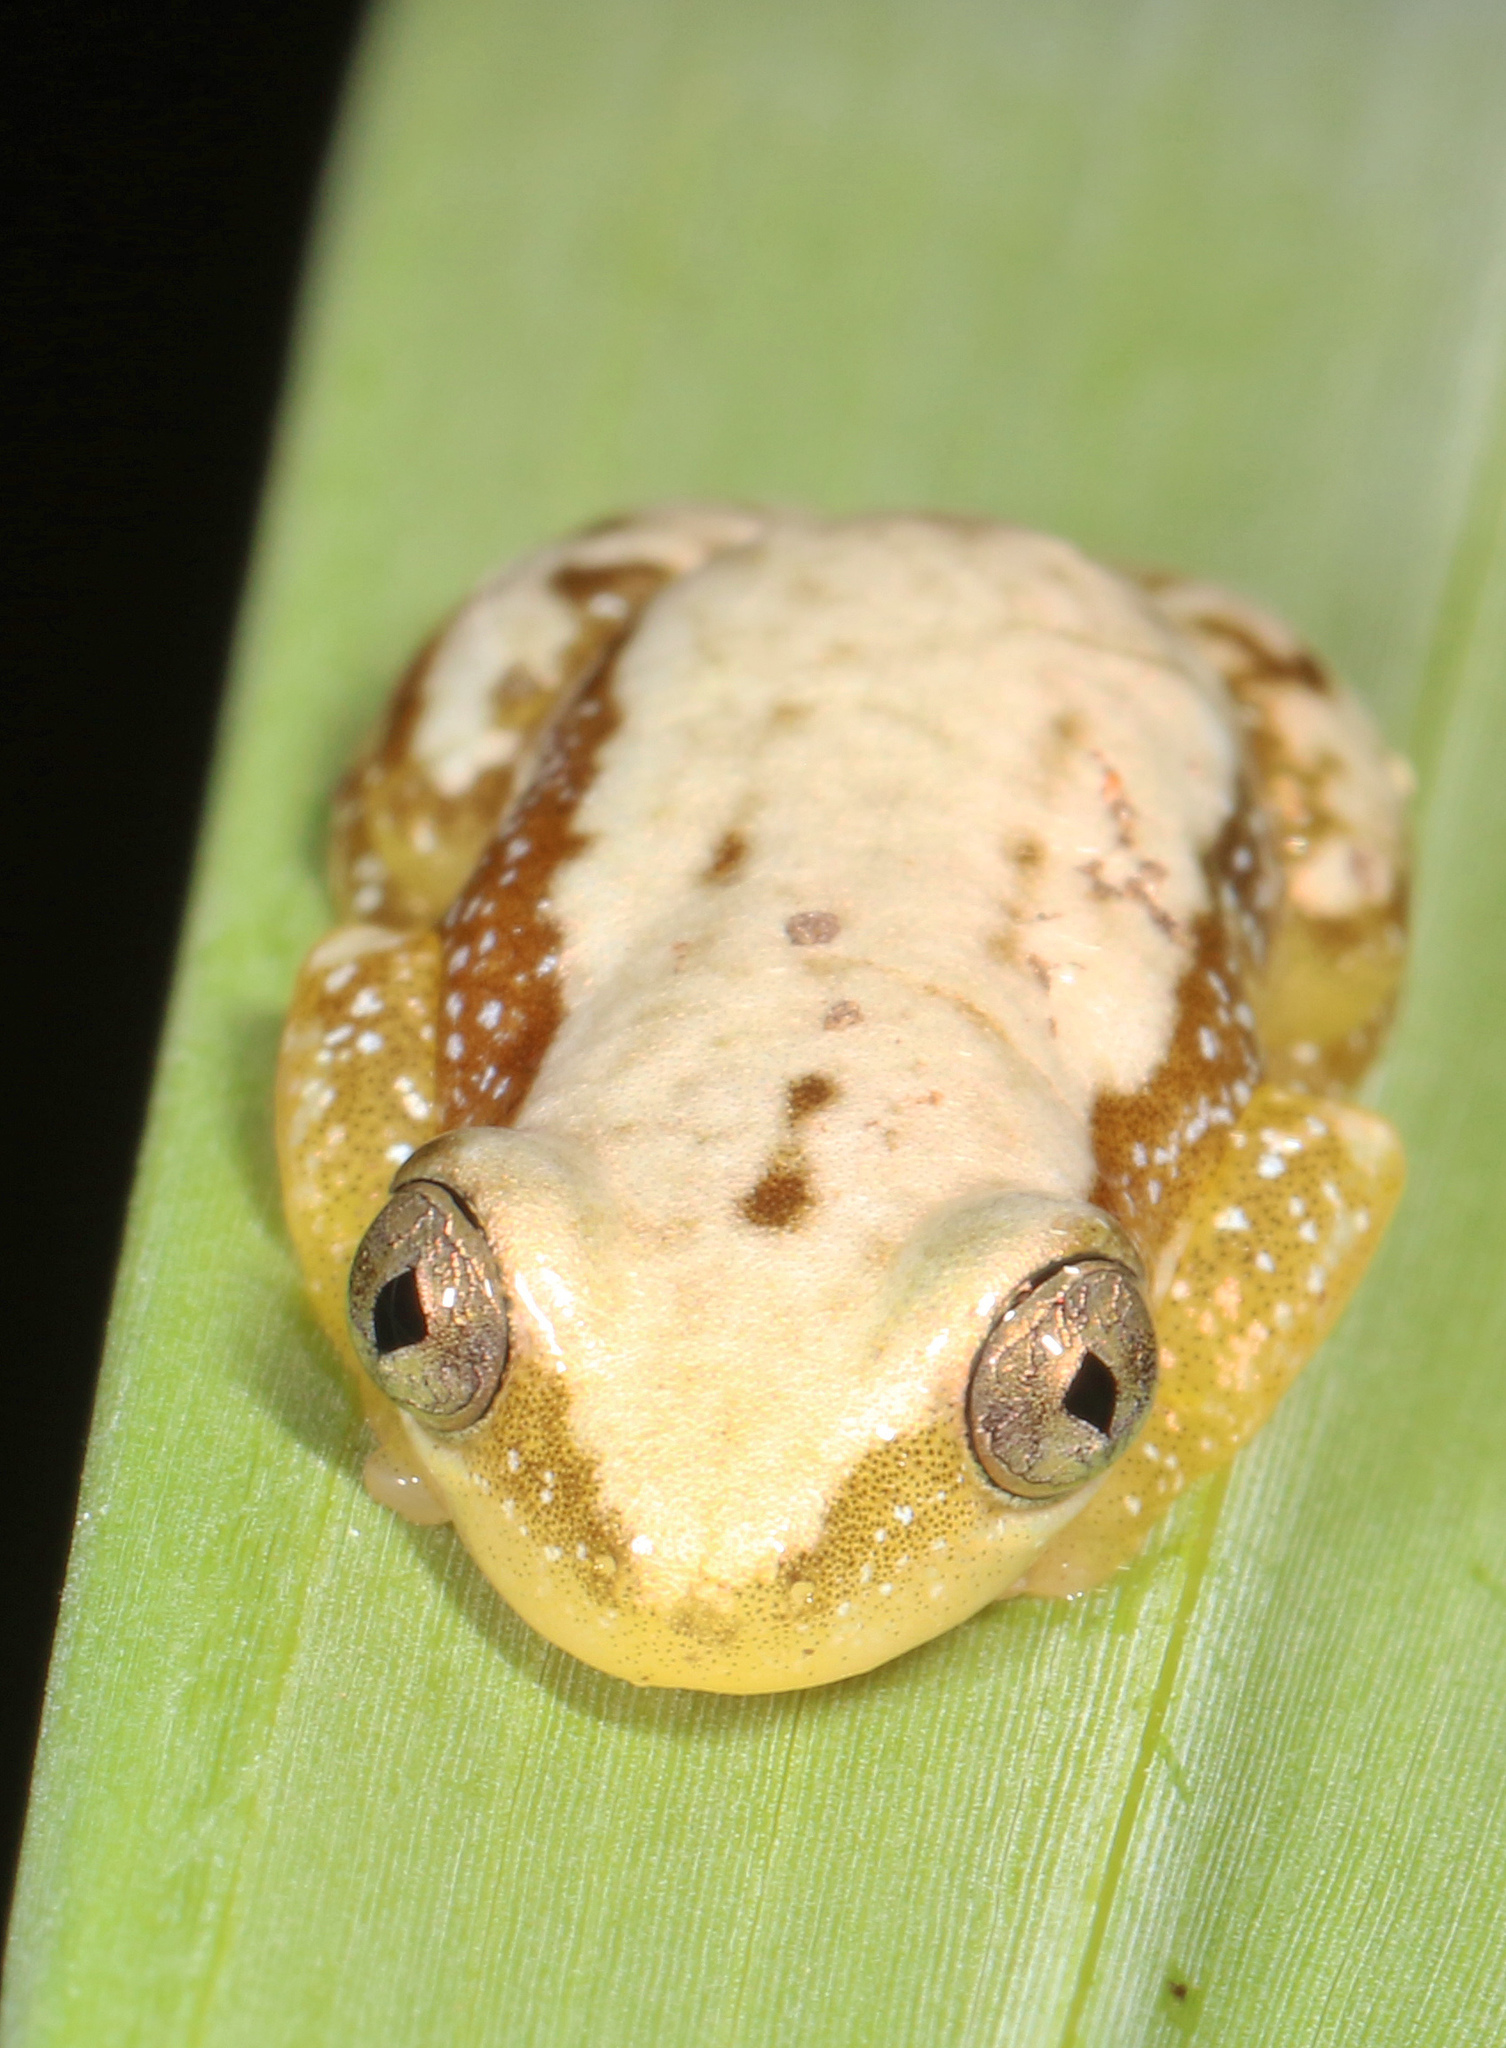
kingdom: Animalia
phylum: Chordata
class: Amphibia
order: Anura
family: Hyperoliidae
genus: Afrixalus
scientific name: Afrixalus delicatus
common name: Delicate leaf-folding frog
